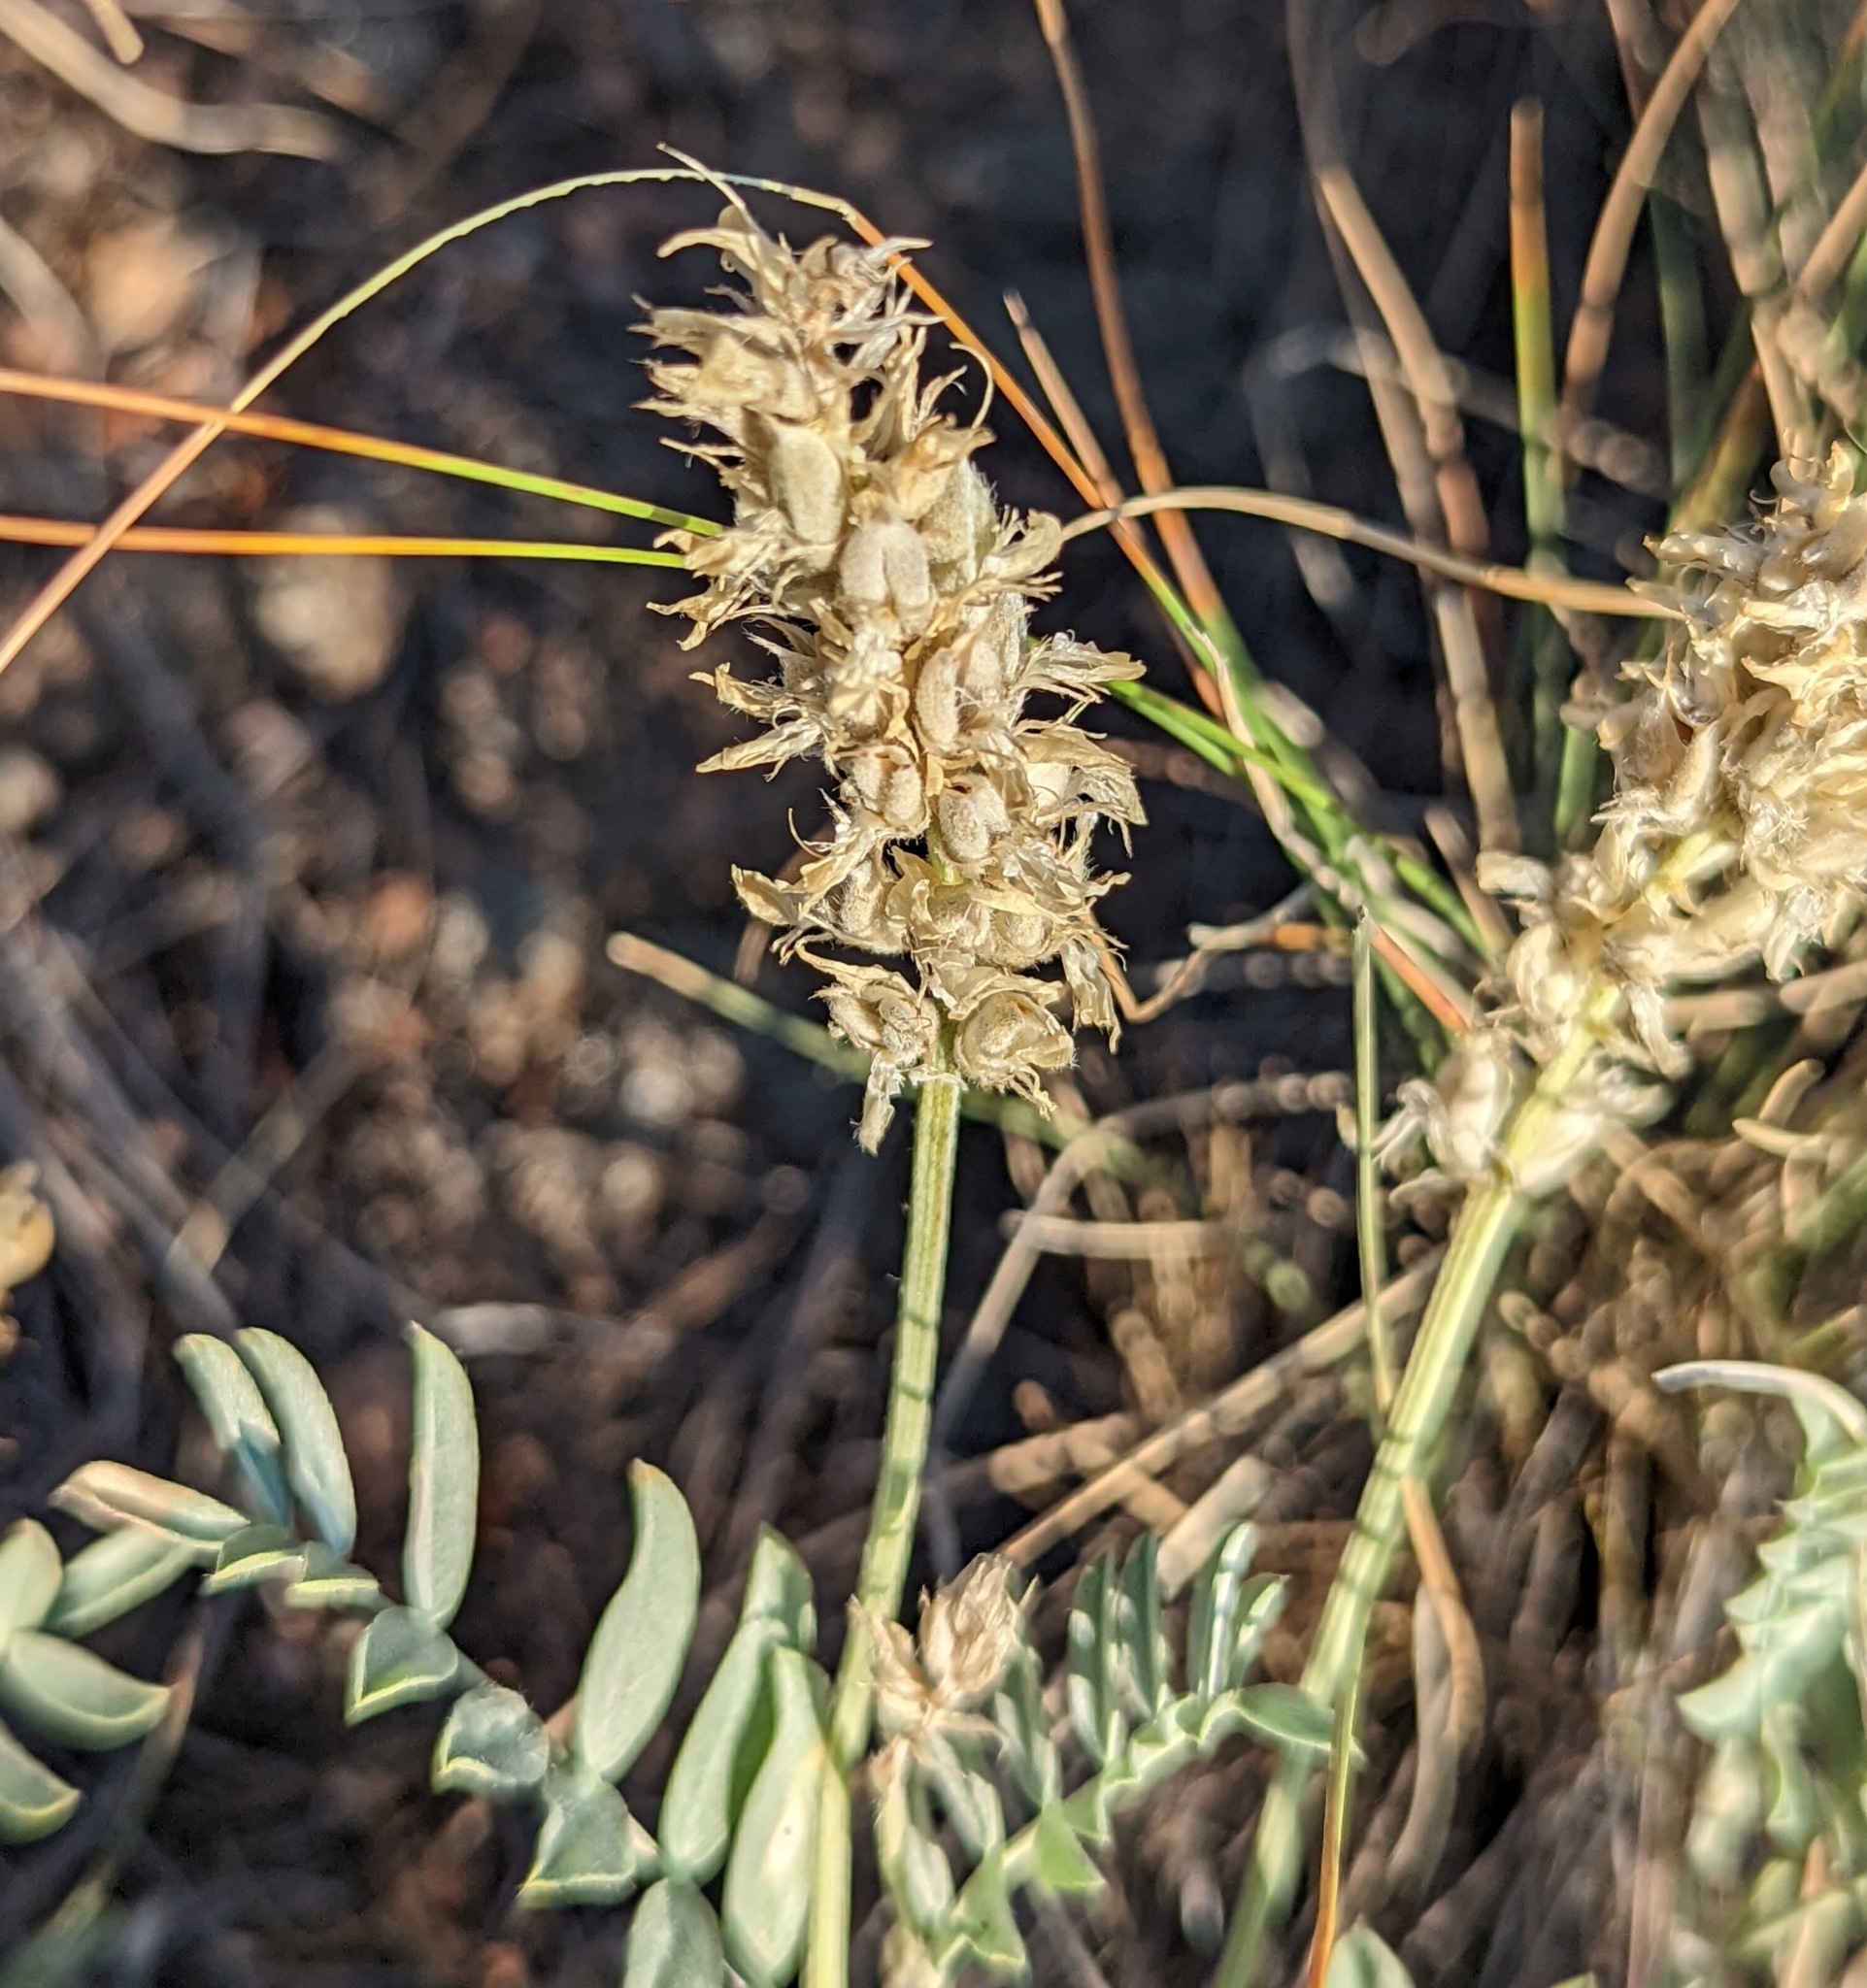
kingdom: Plantae
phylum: Tracheophyta
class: Magnoliopsida
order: Fabales
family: Fabaceae
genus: Astragalus
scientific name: Astragalus laxmannii
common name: Laxmann's milk-vetch
